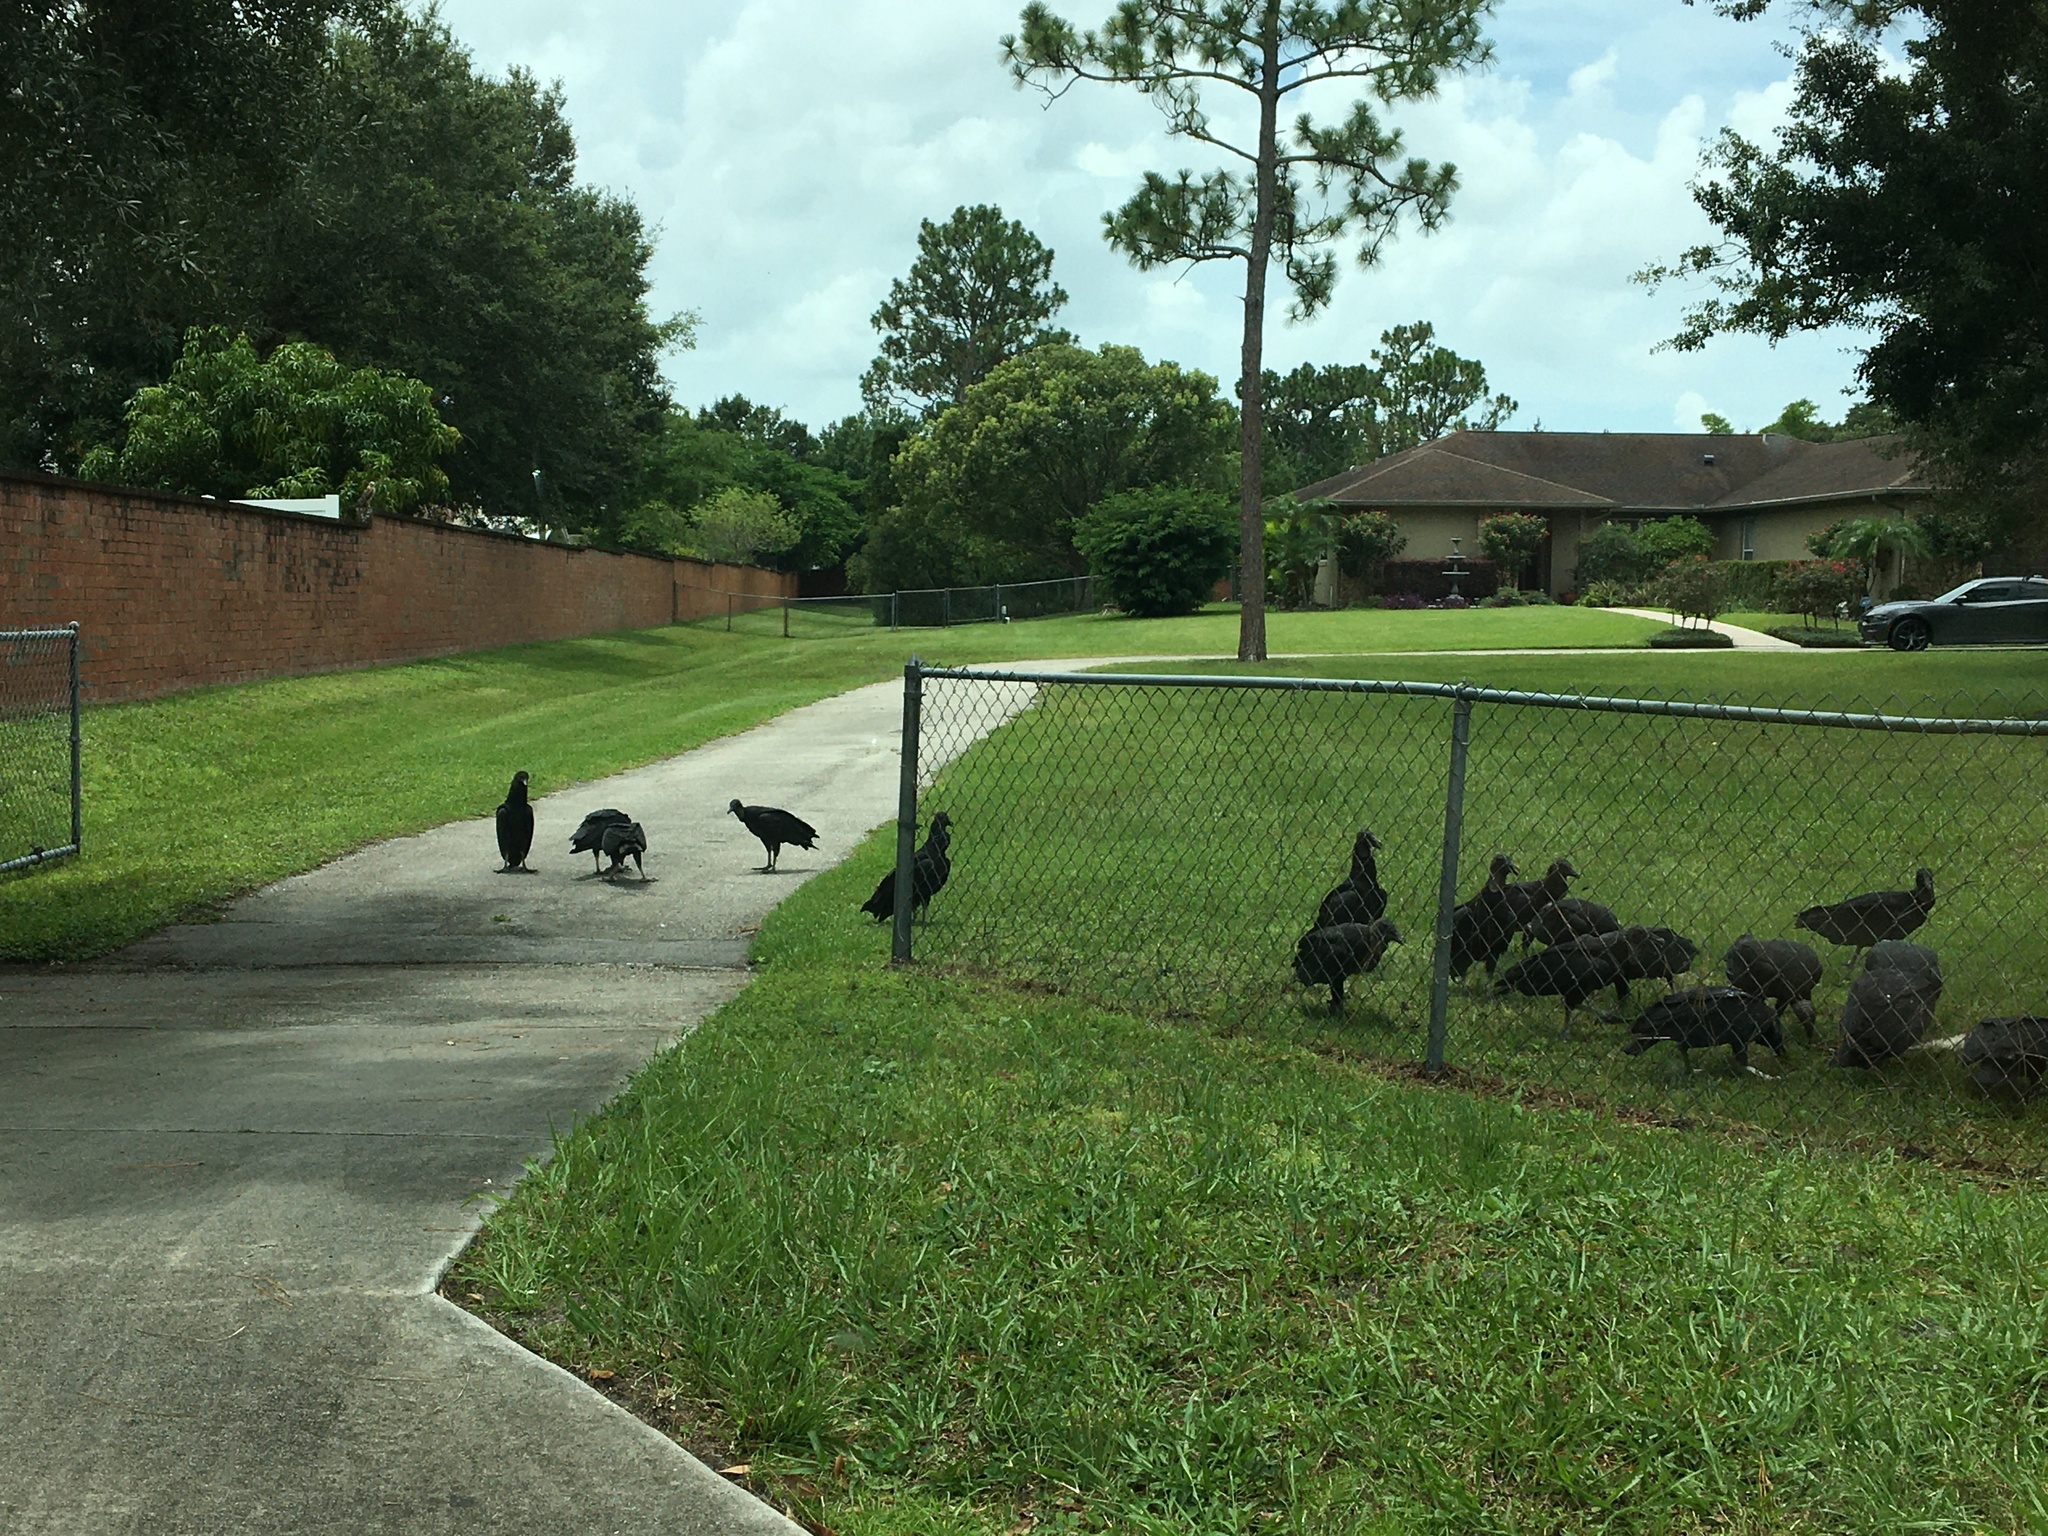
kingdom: Animalia
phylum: Chordata
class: Aves
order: Accipitriformes
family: Cathartidae
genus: Coragyps
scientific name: Coragyps atratus
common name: Black vulture
